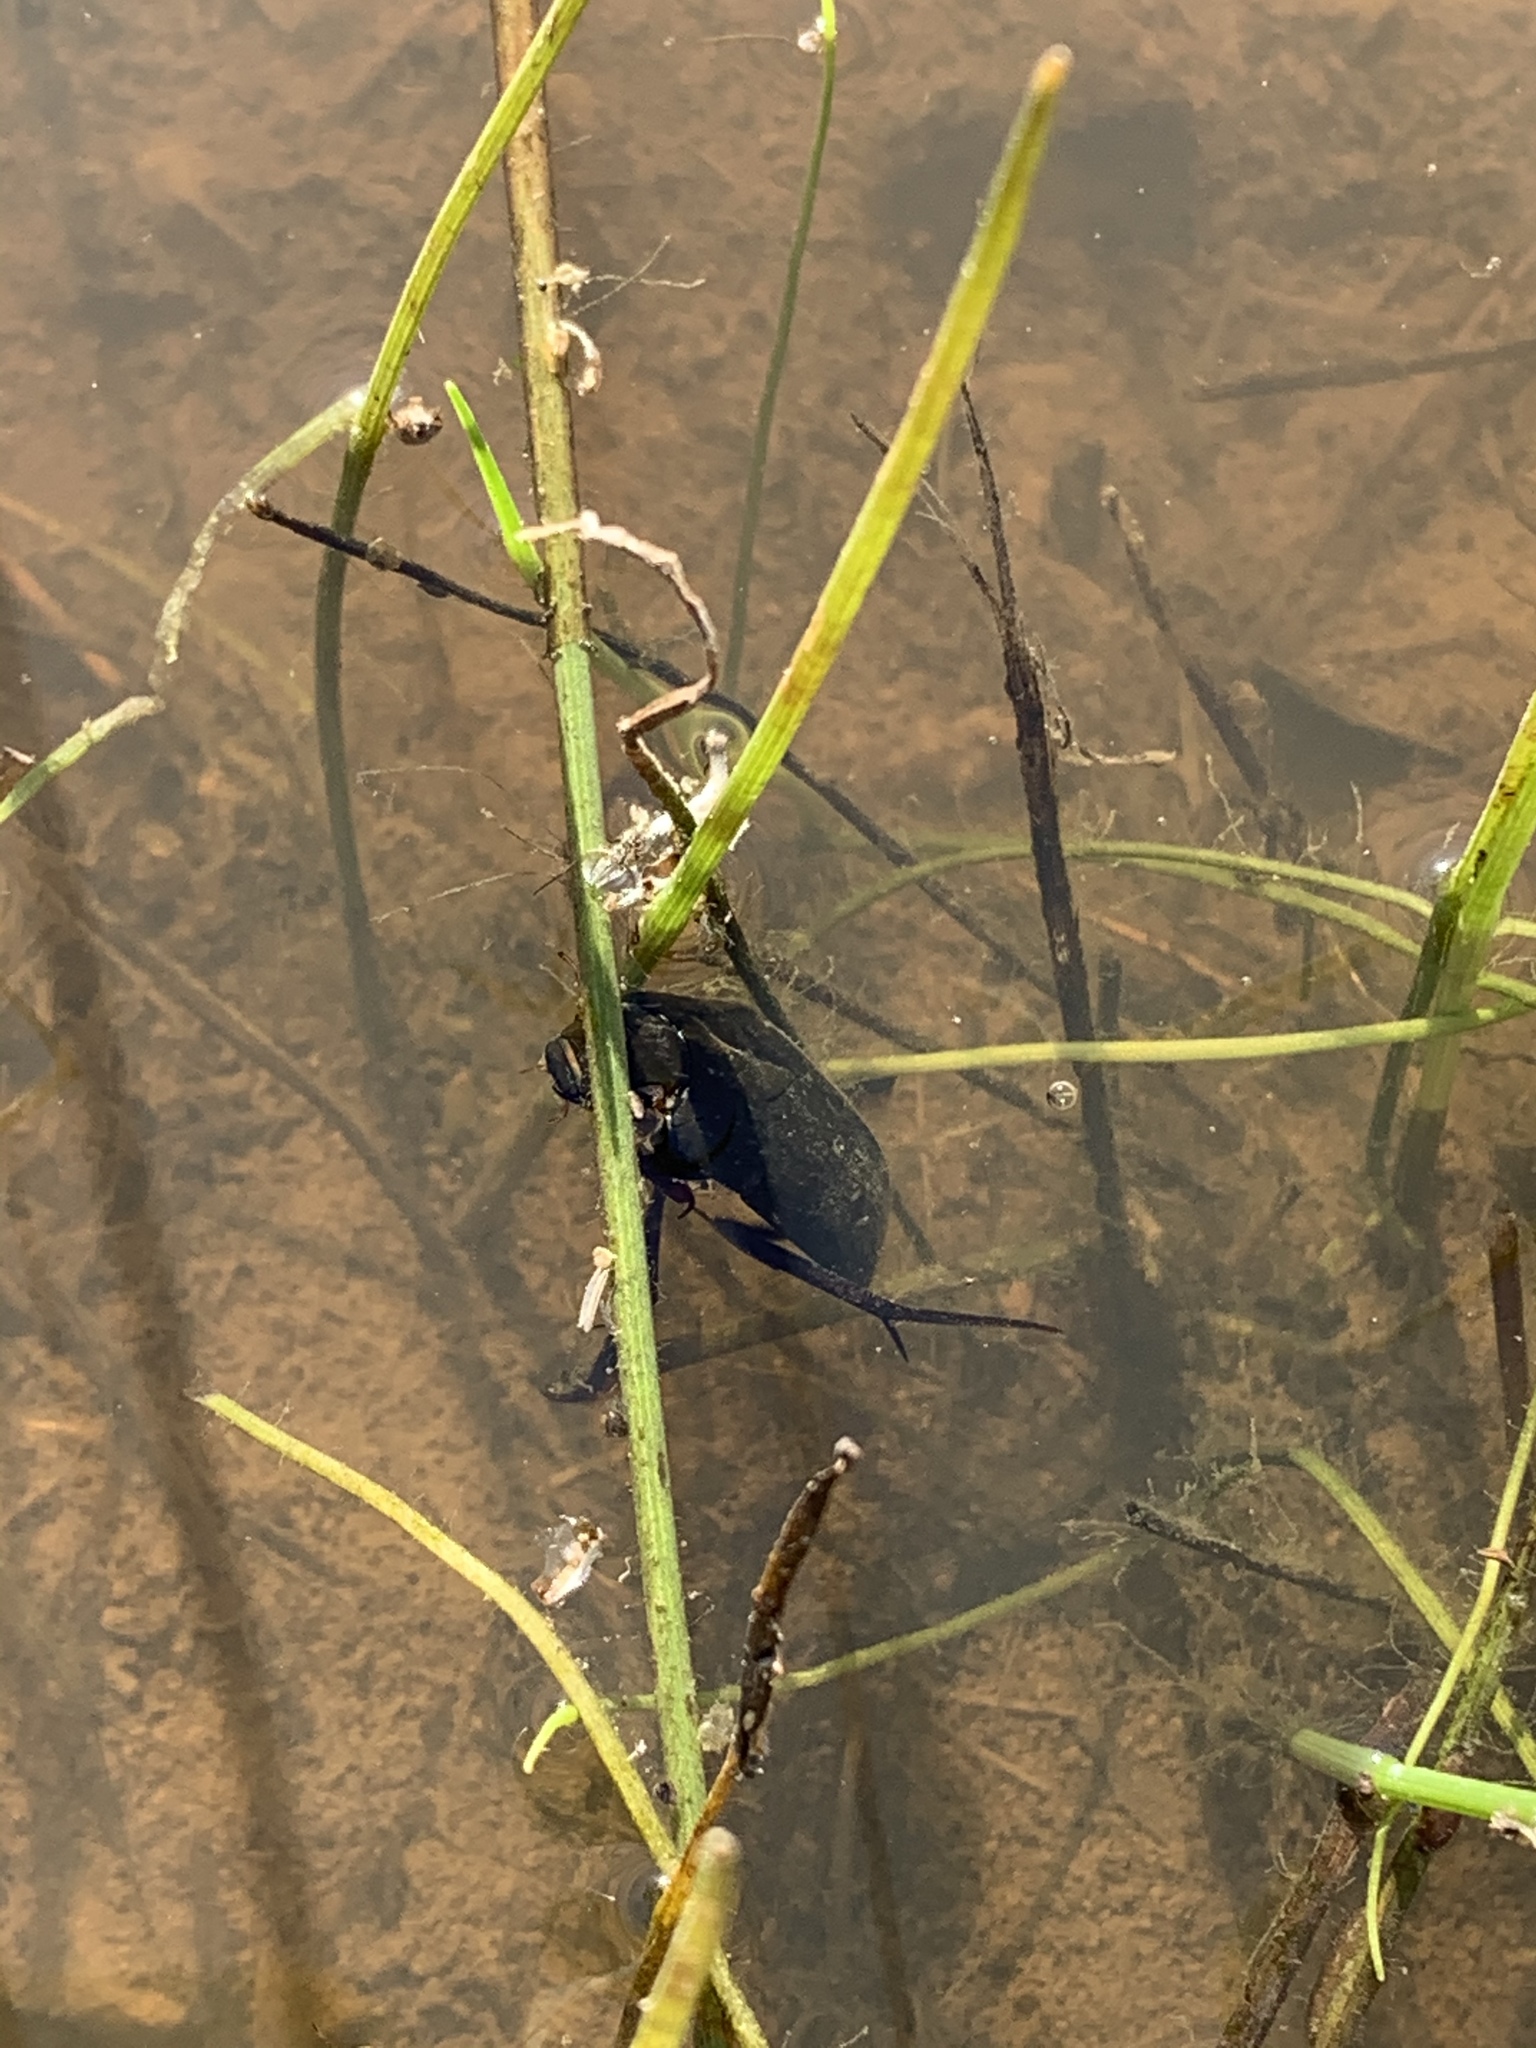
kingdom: Animalia
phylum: Arthropoda
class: Insecta
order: Coleoptera
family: Hydrophilidae
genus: Hydrophilus
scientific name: Hydrophilus triangularis
